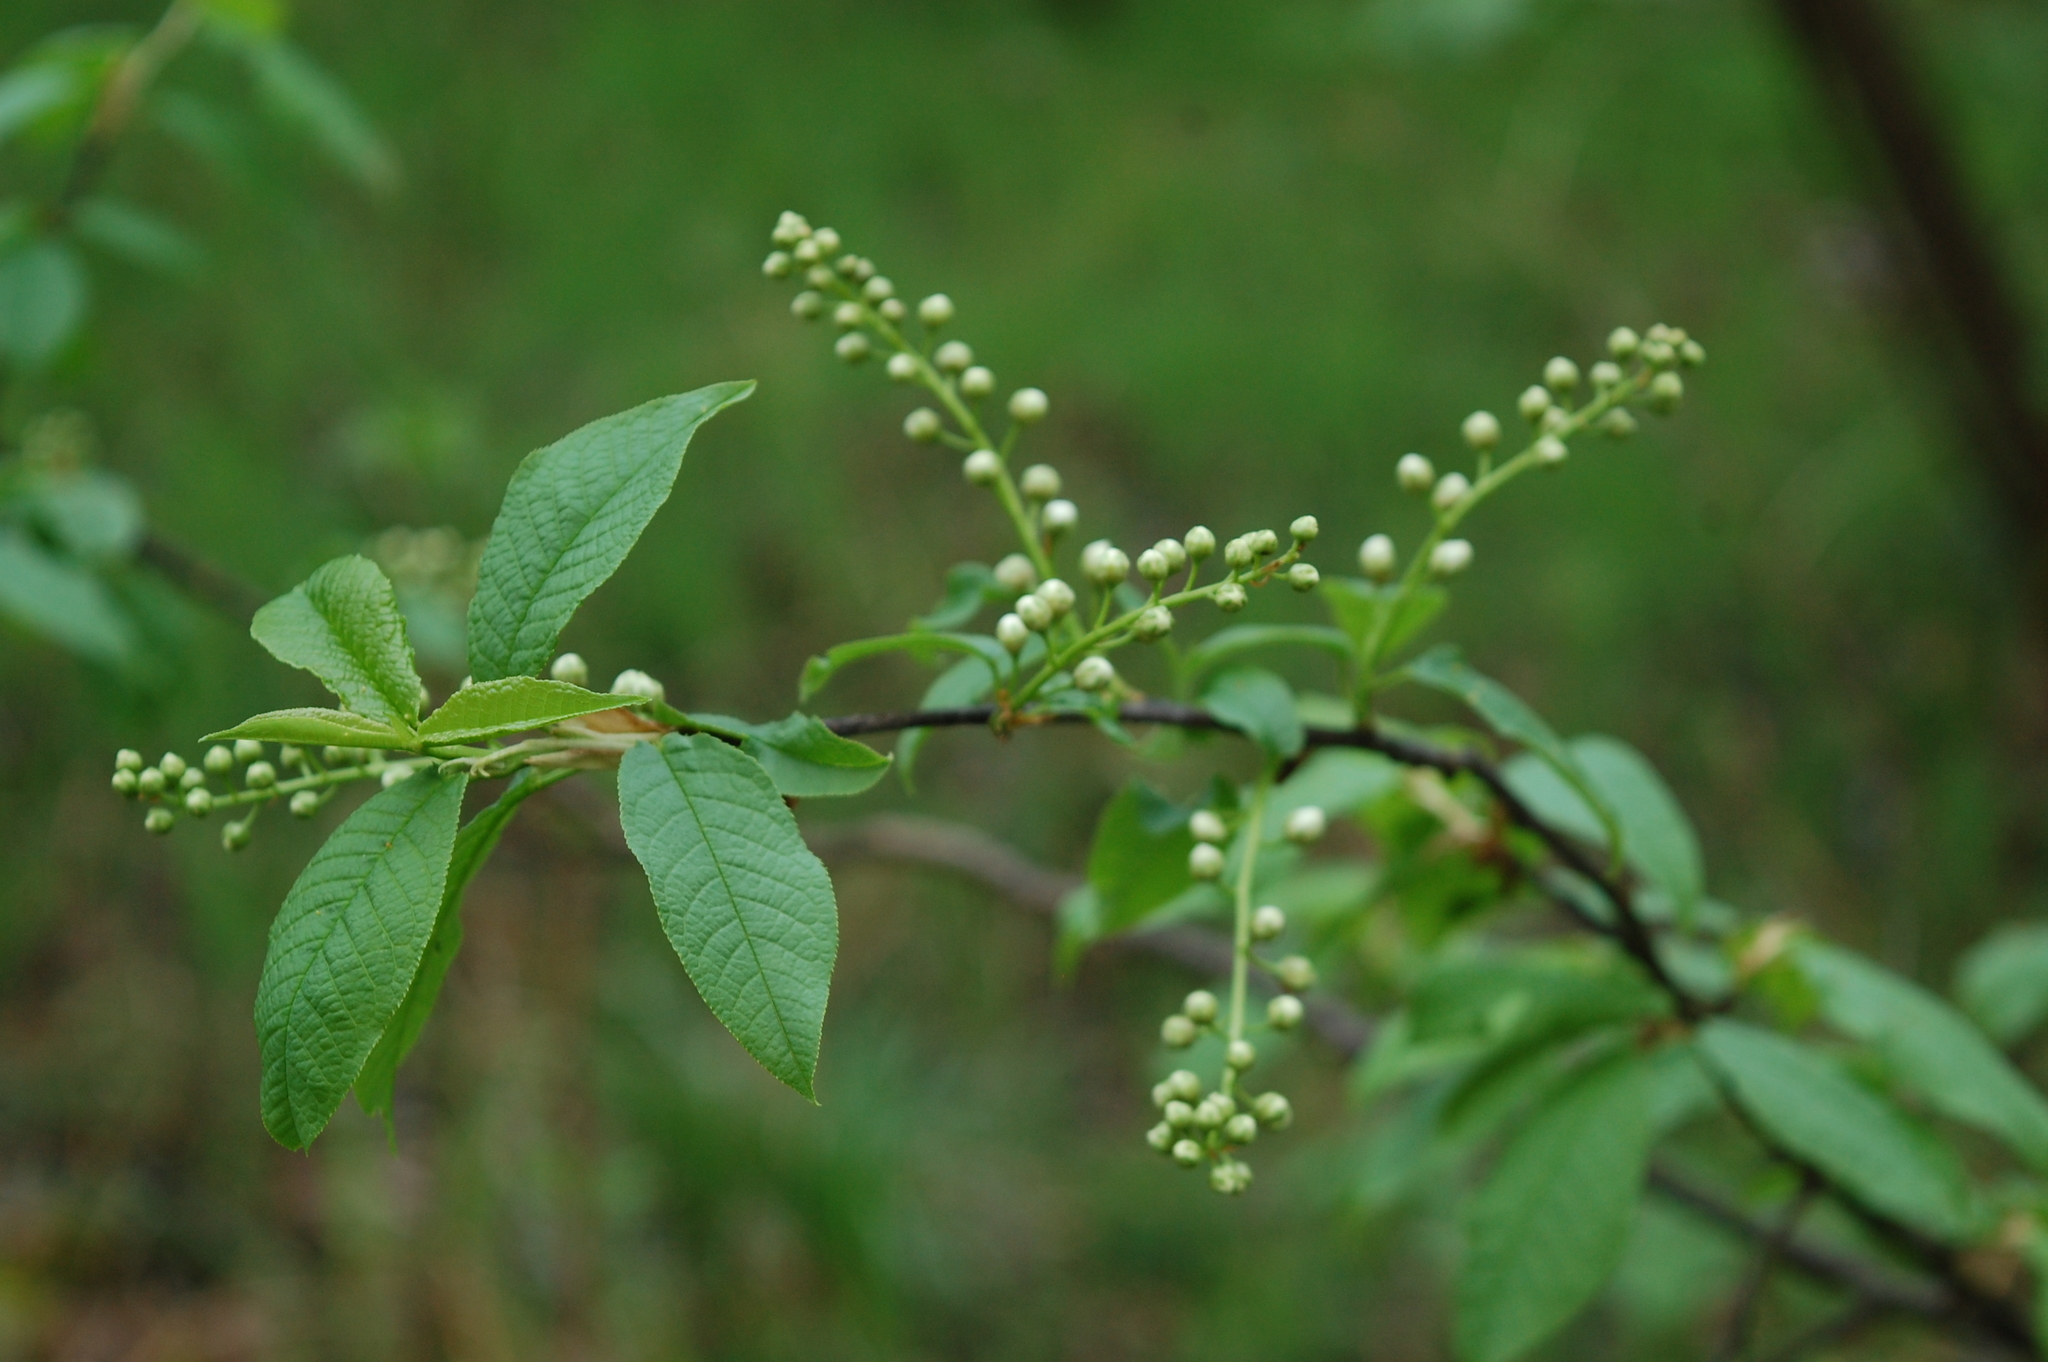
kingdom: Plantae
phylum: Tracheophyta
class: Magnoliopsida
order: Rosales
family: Rosaceae
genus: Prunus
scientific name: Prunus padus
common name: Bird cherry
